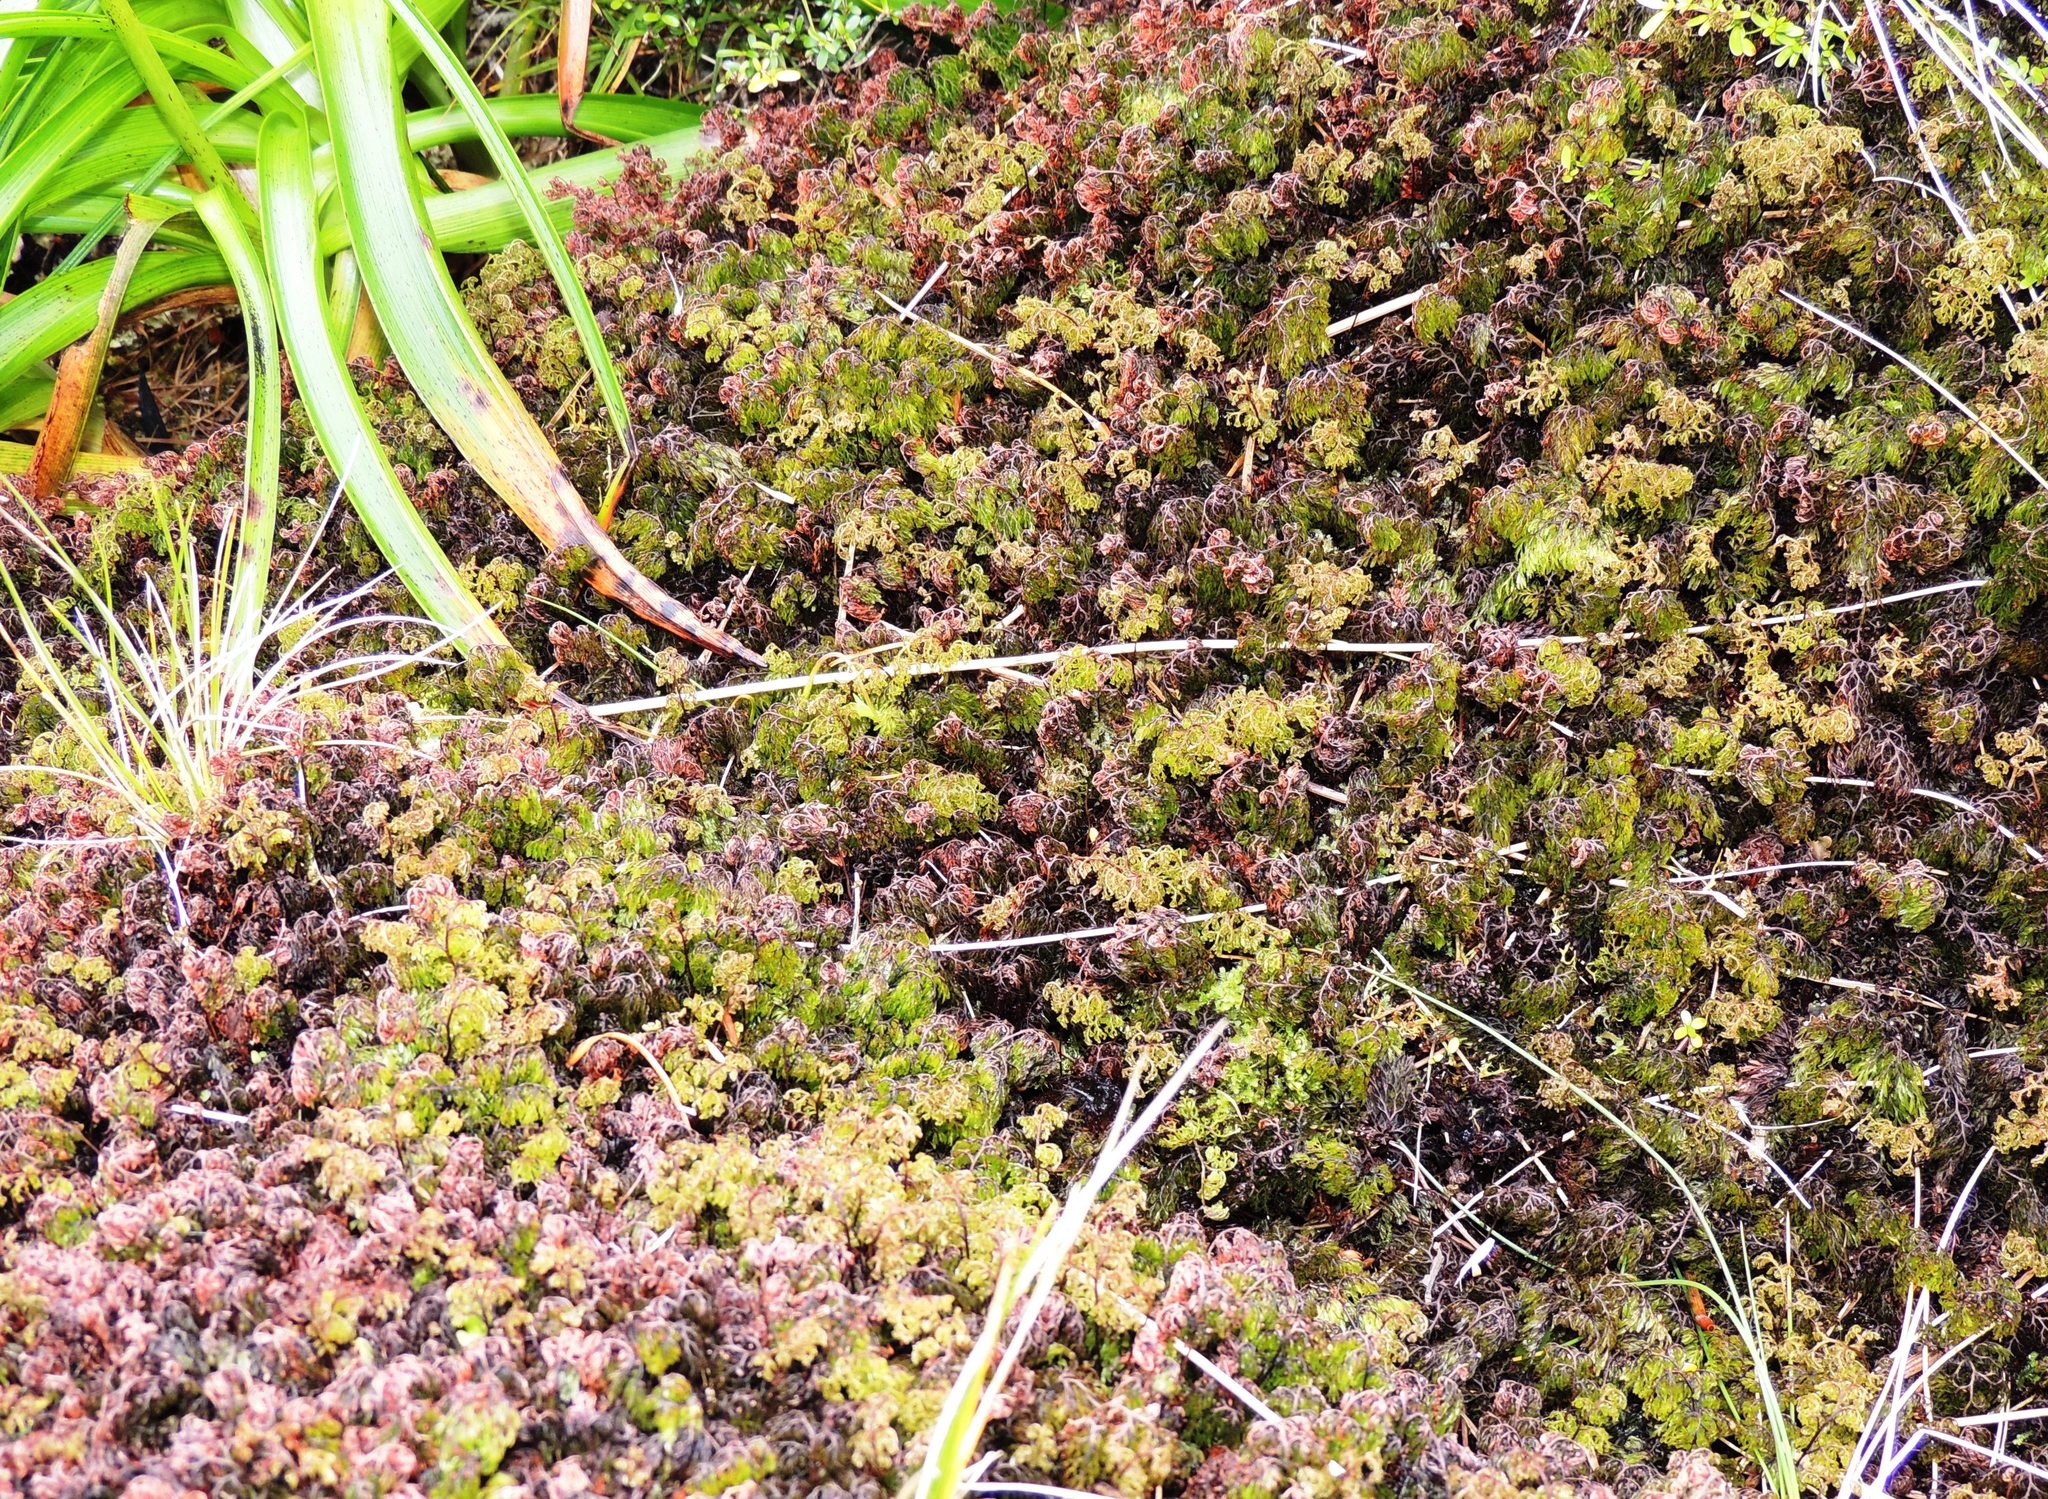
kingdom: Plantae
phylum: Tracheophyta
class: Polypodiopsida
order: Hymenophyllales
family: Hymenophyllaceae
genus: Hymenophyllum
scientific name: Hymenophyllum multifidum
